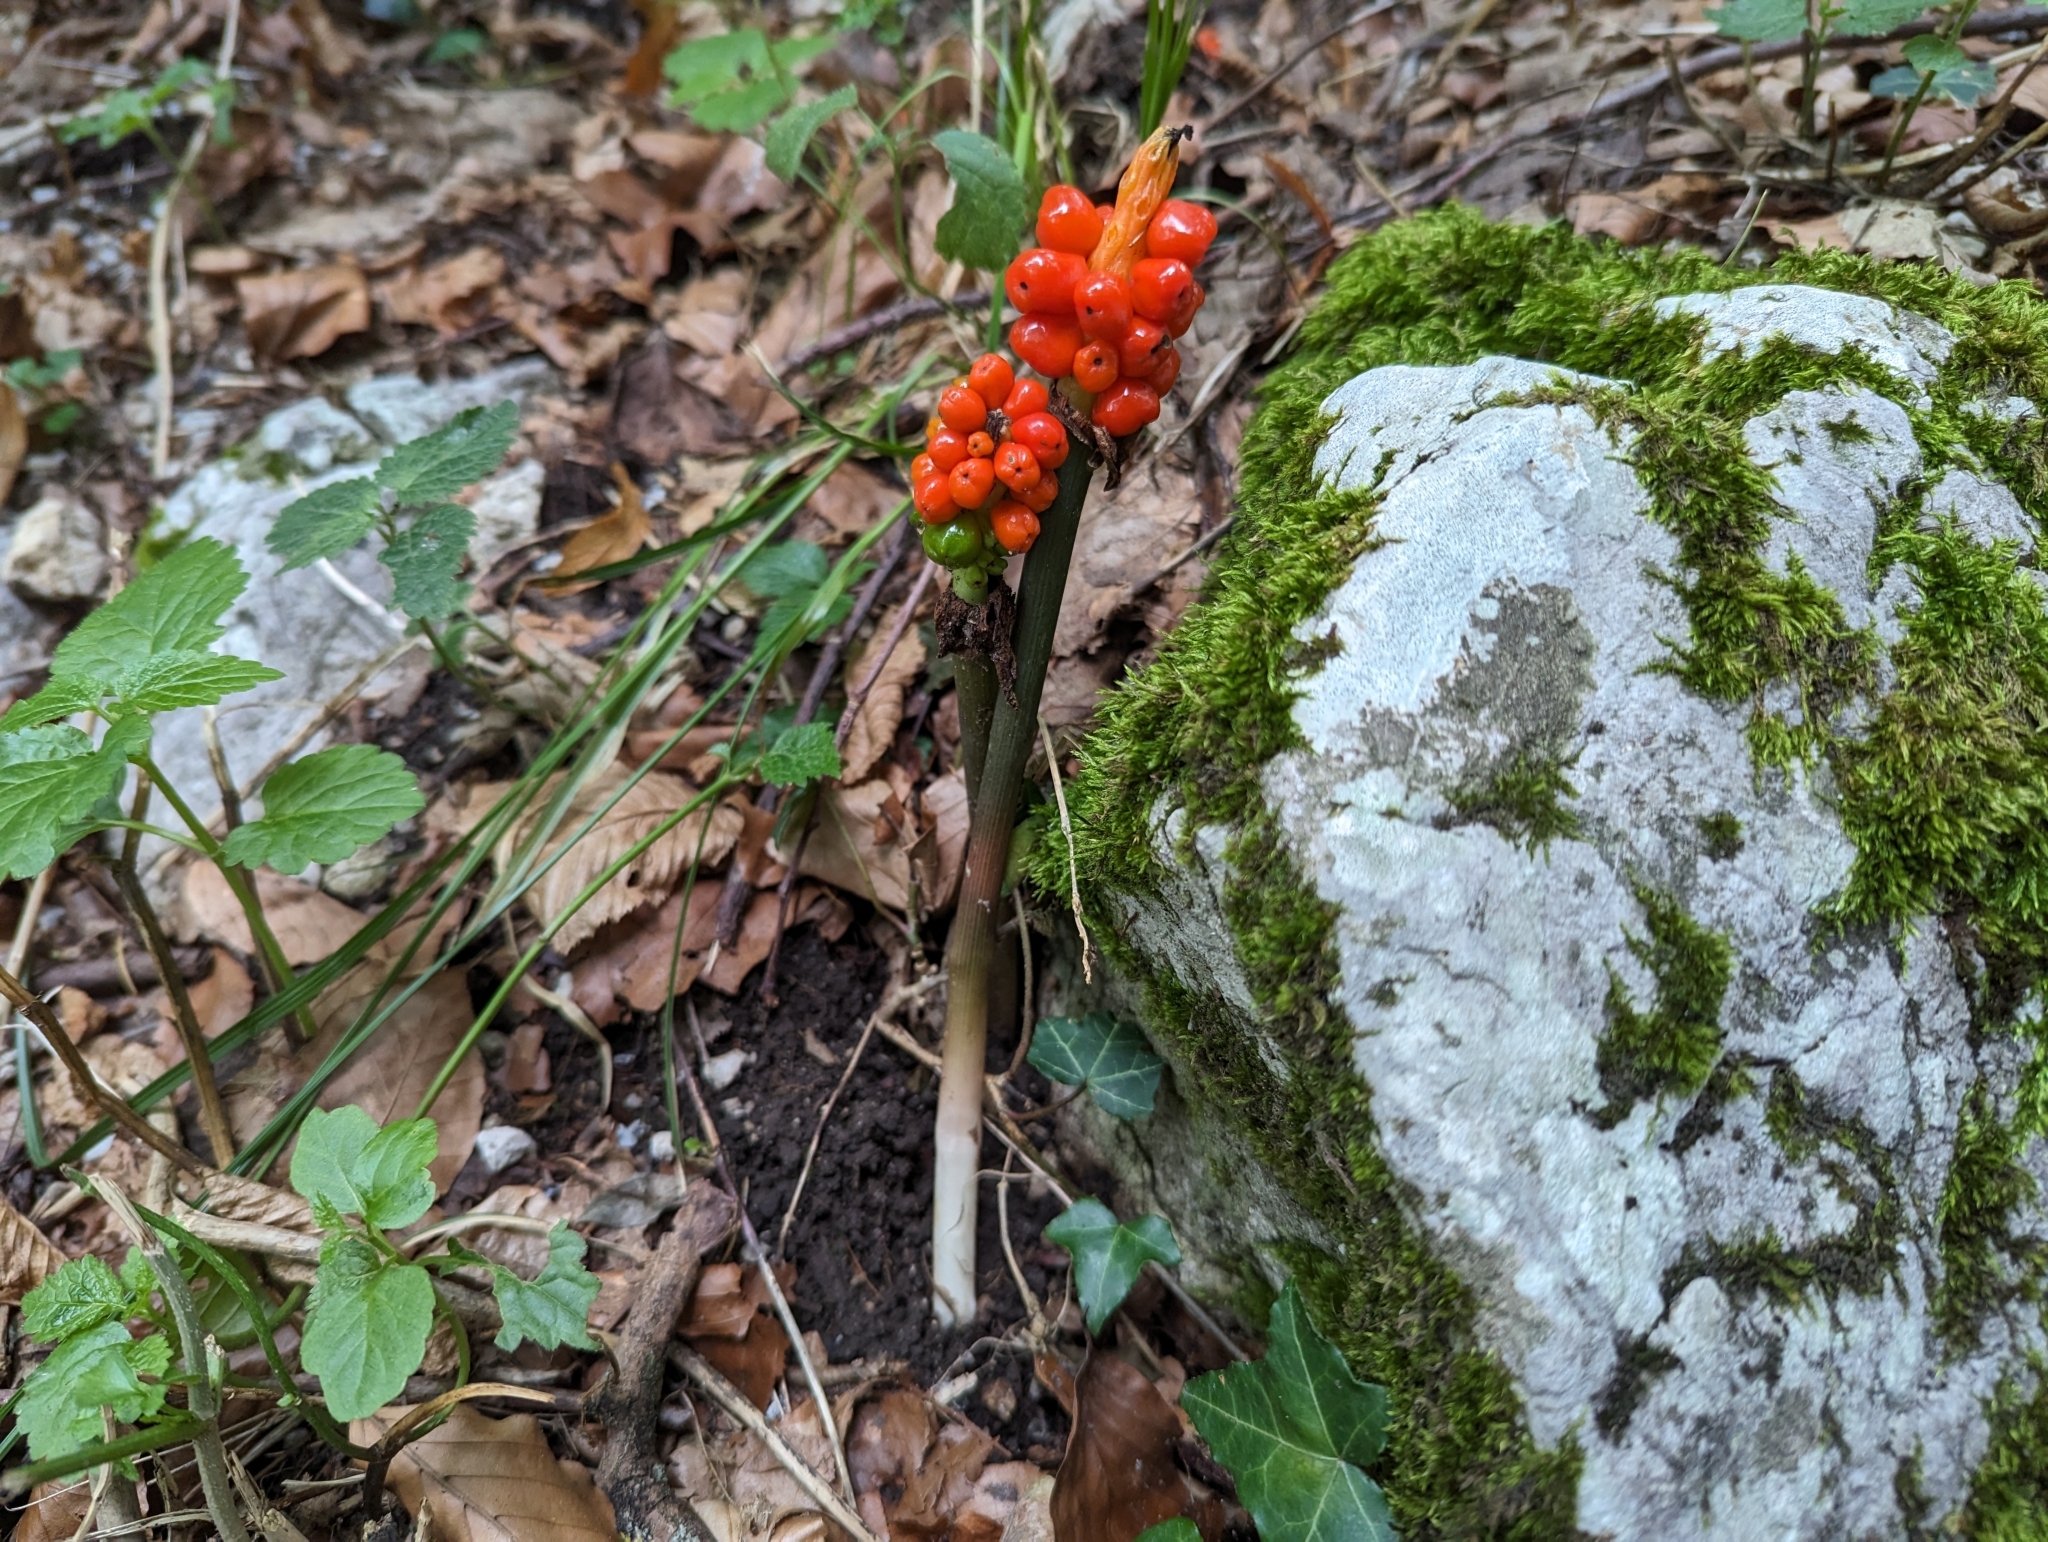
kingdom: Plantae
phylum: Tracheophyta
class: Liliopsida
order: Alismatales
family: Araceae
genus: Arum
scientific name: Arum maculatum
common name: Lords-and-ladies
